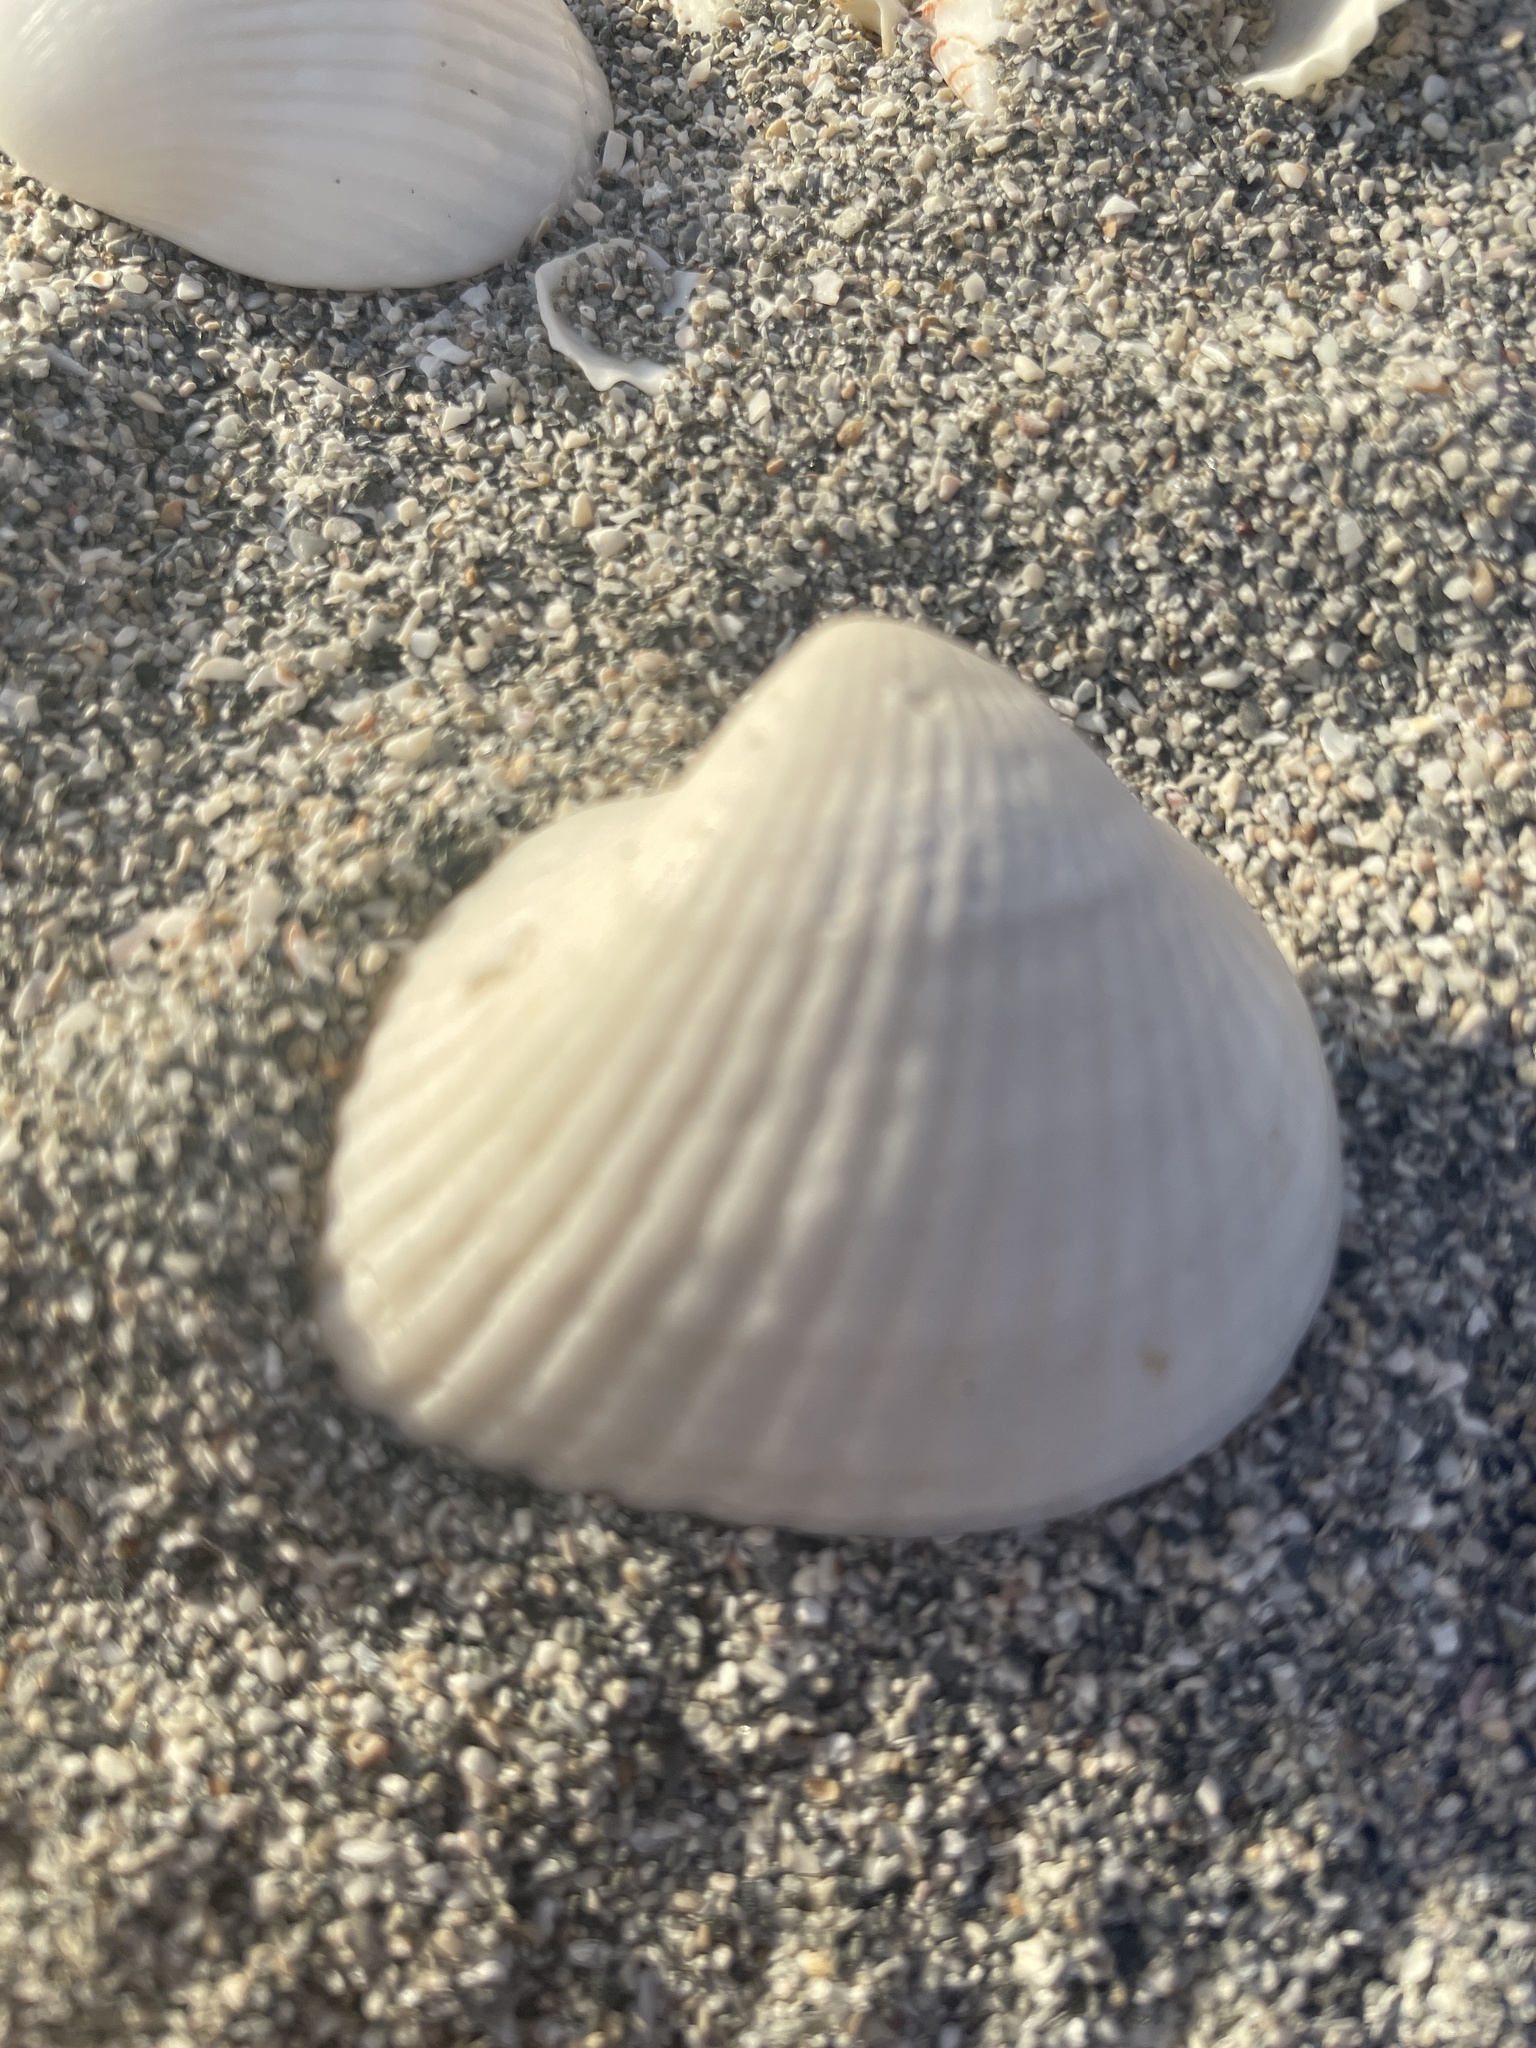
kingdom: Animalia
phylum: Mollusca
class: Bivalvia
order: Arcida
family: Noetiidae
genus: Noetia
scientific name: Noetia ponderosa
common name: Ponderous ark
